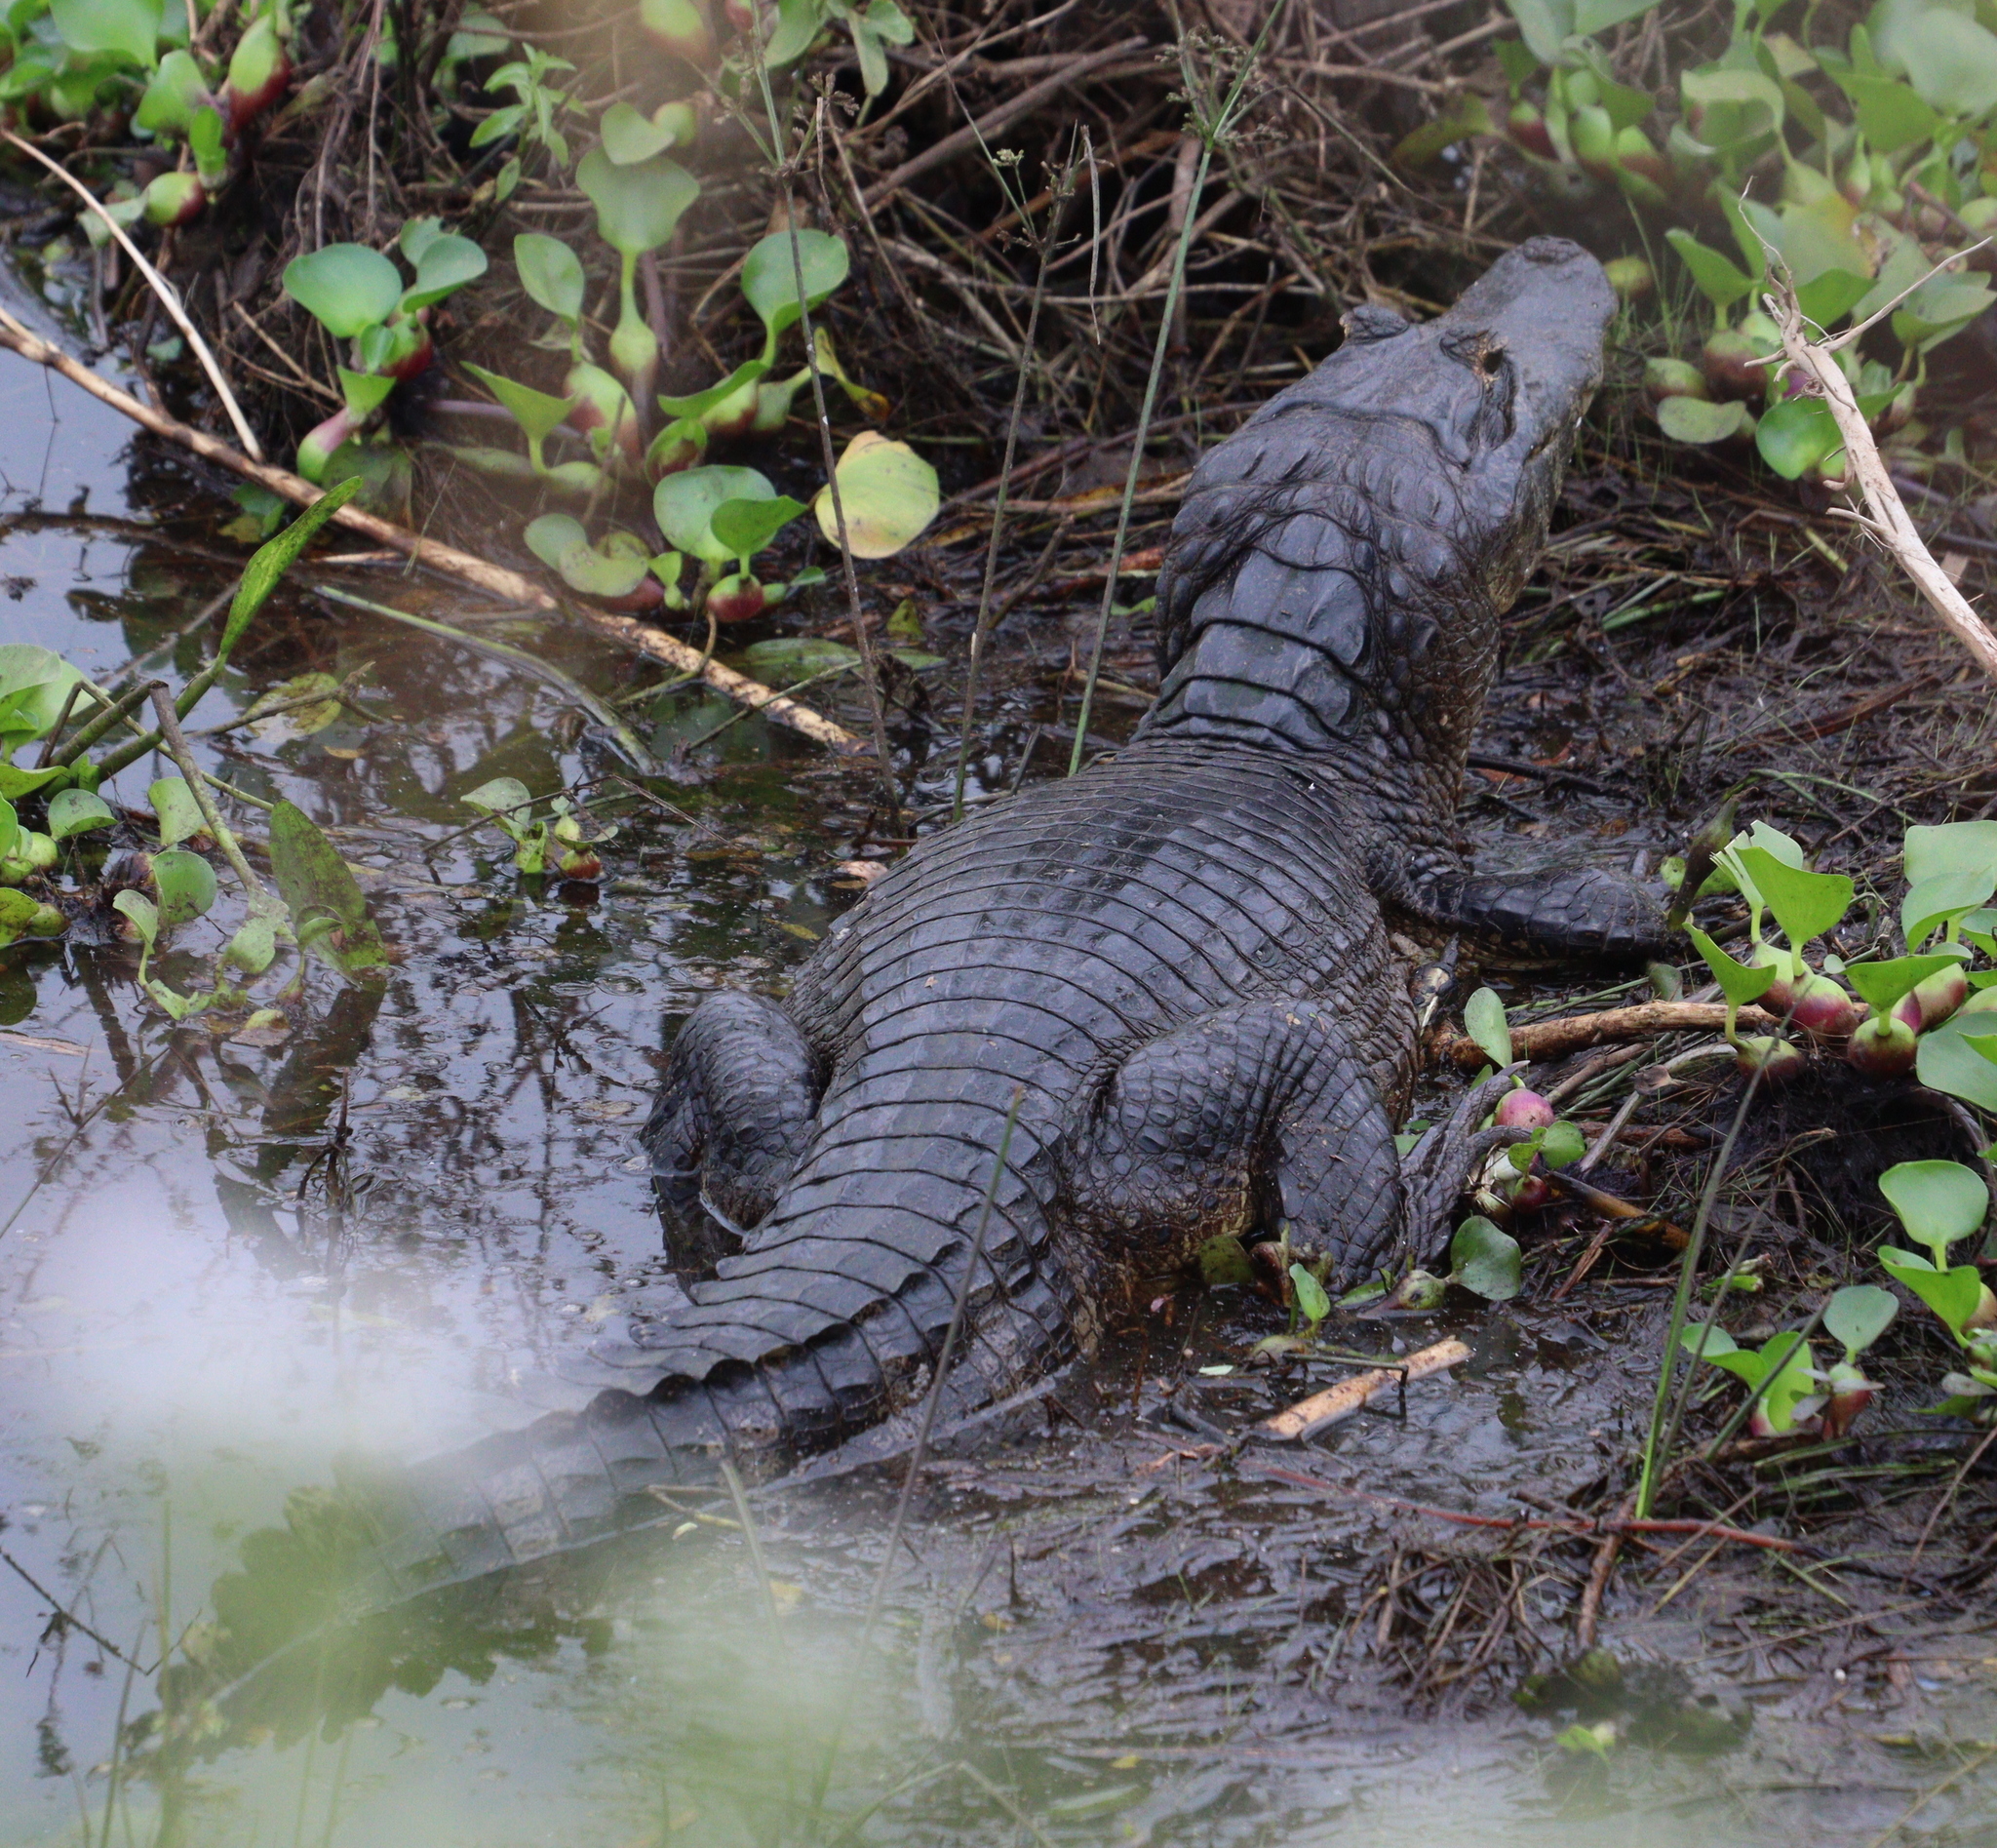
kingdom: Animalia
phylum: Chordata
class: Crocodylia
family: Alligatoridae
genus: Caiman
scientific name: Caiman yacare
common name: Yacare caiman
